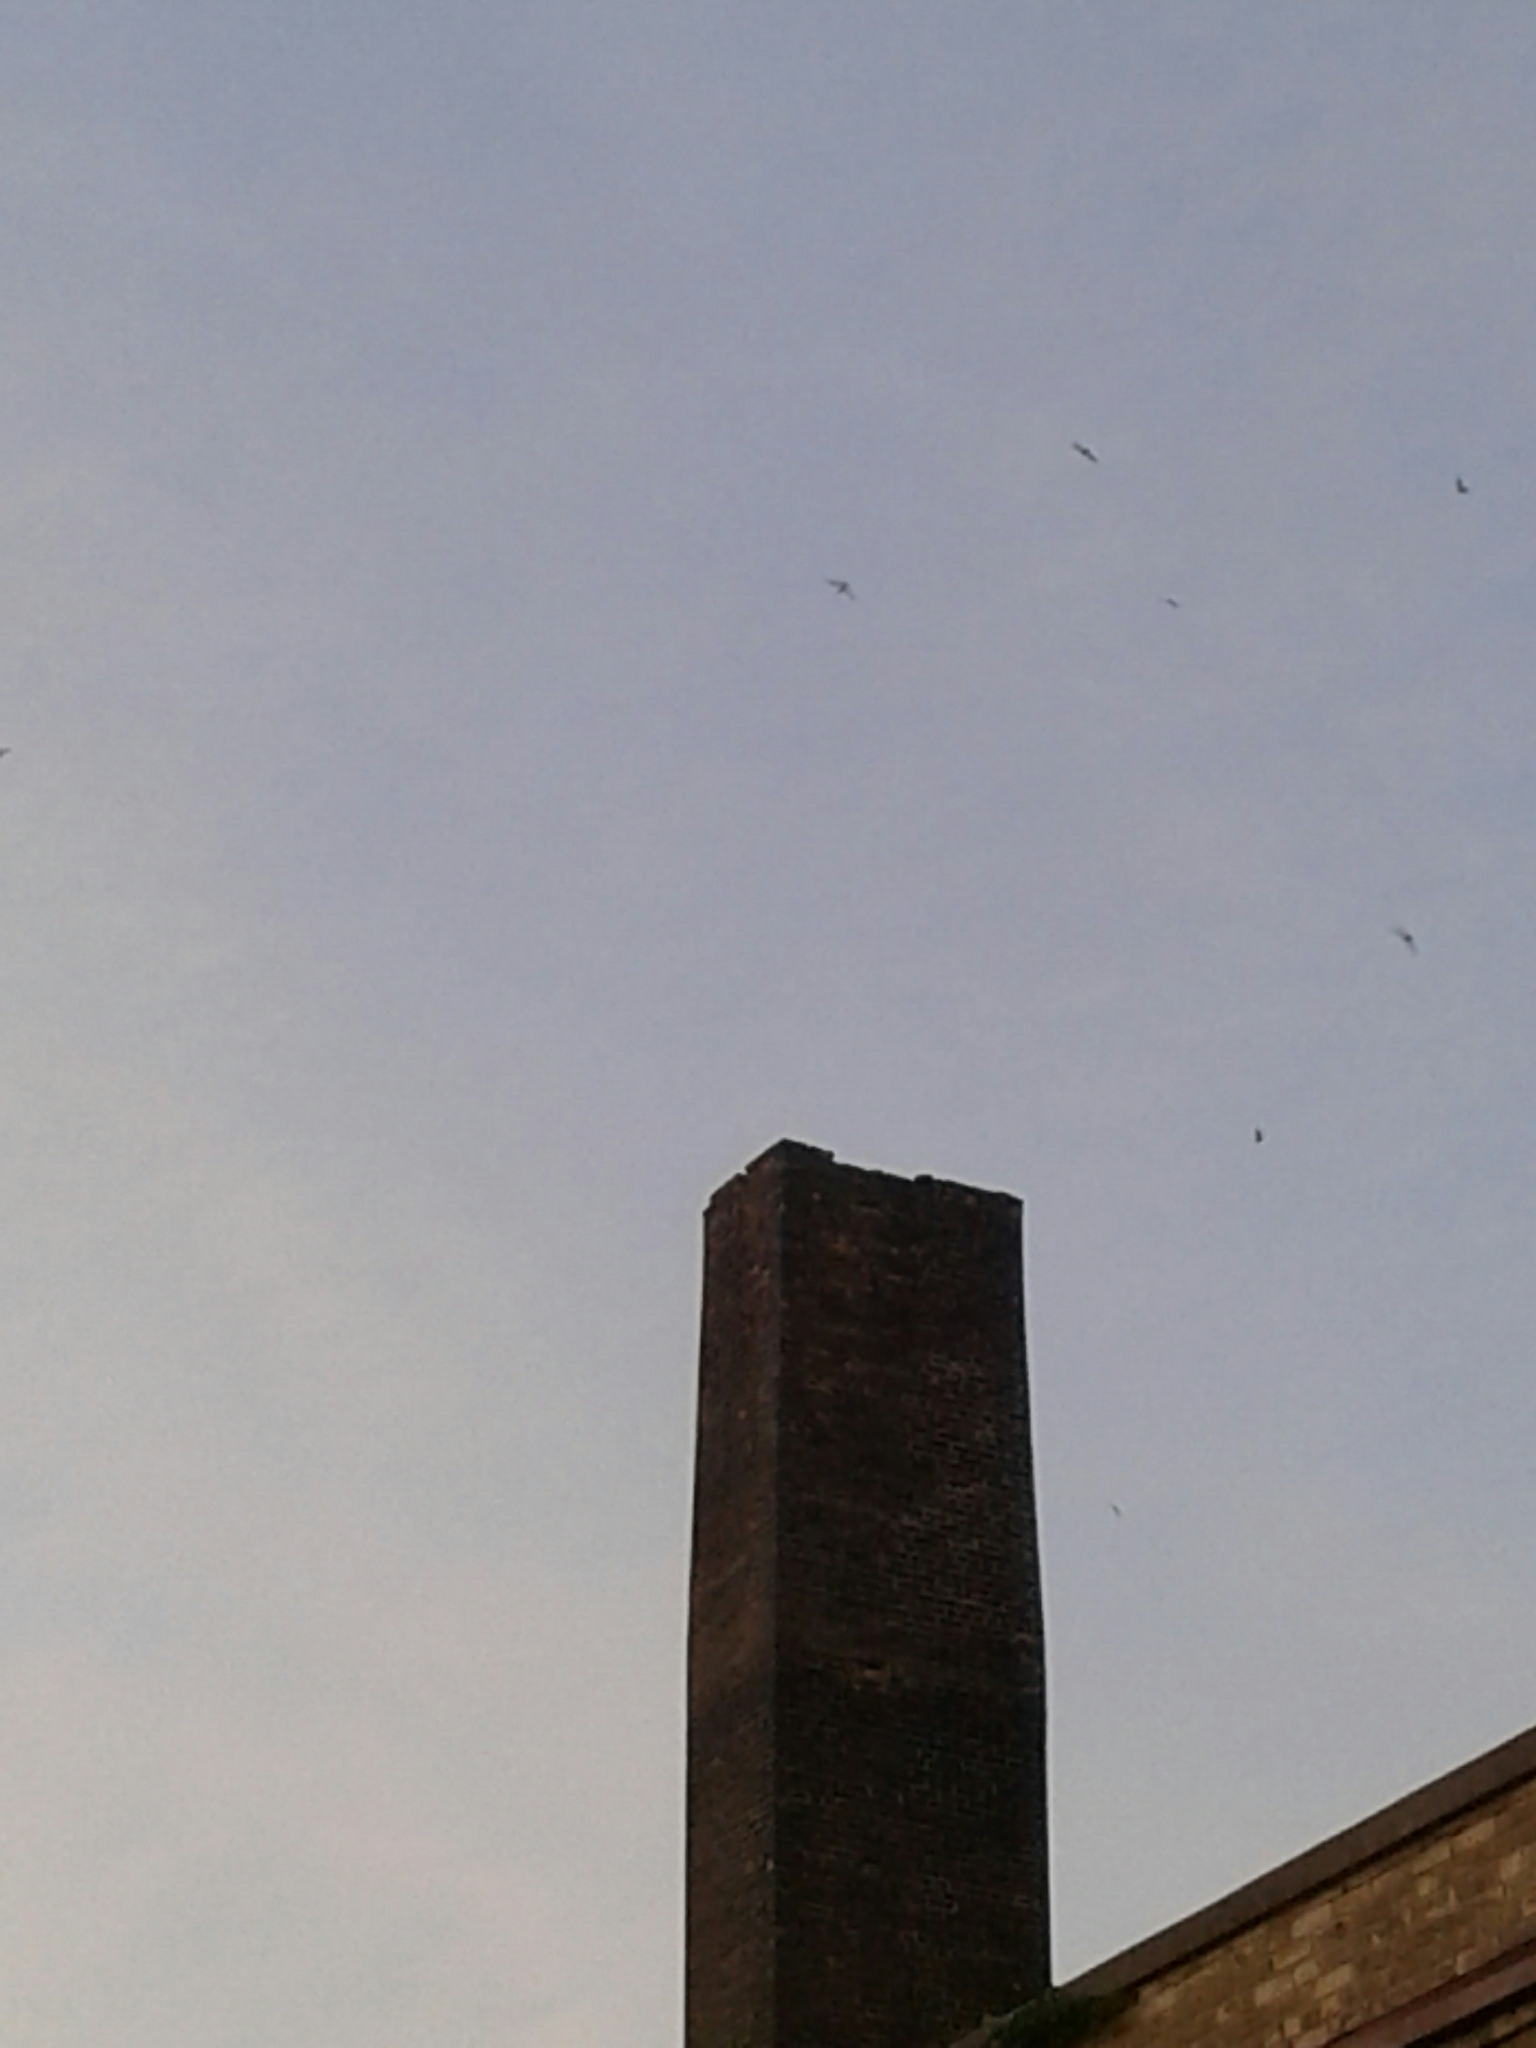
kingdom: Animalia
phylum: Chordata
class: Aves
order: Apodiformes
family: Apodidae
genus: Chaetura
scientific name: Chaetura pelagica
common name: Chimney swift
